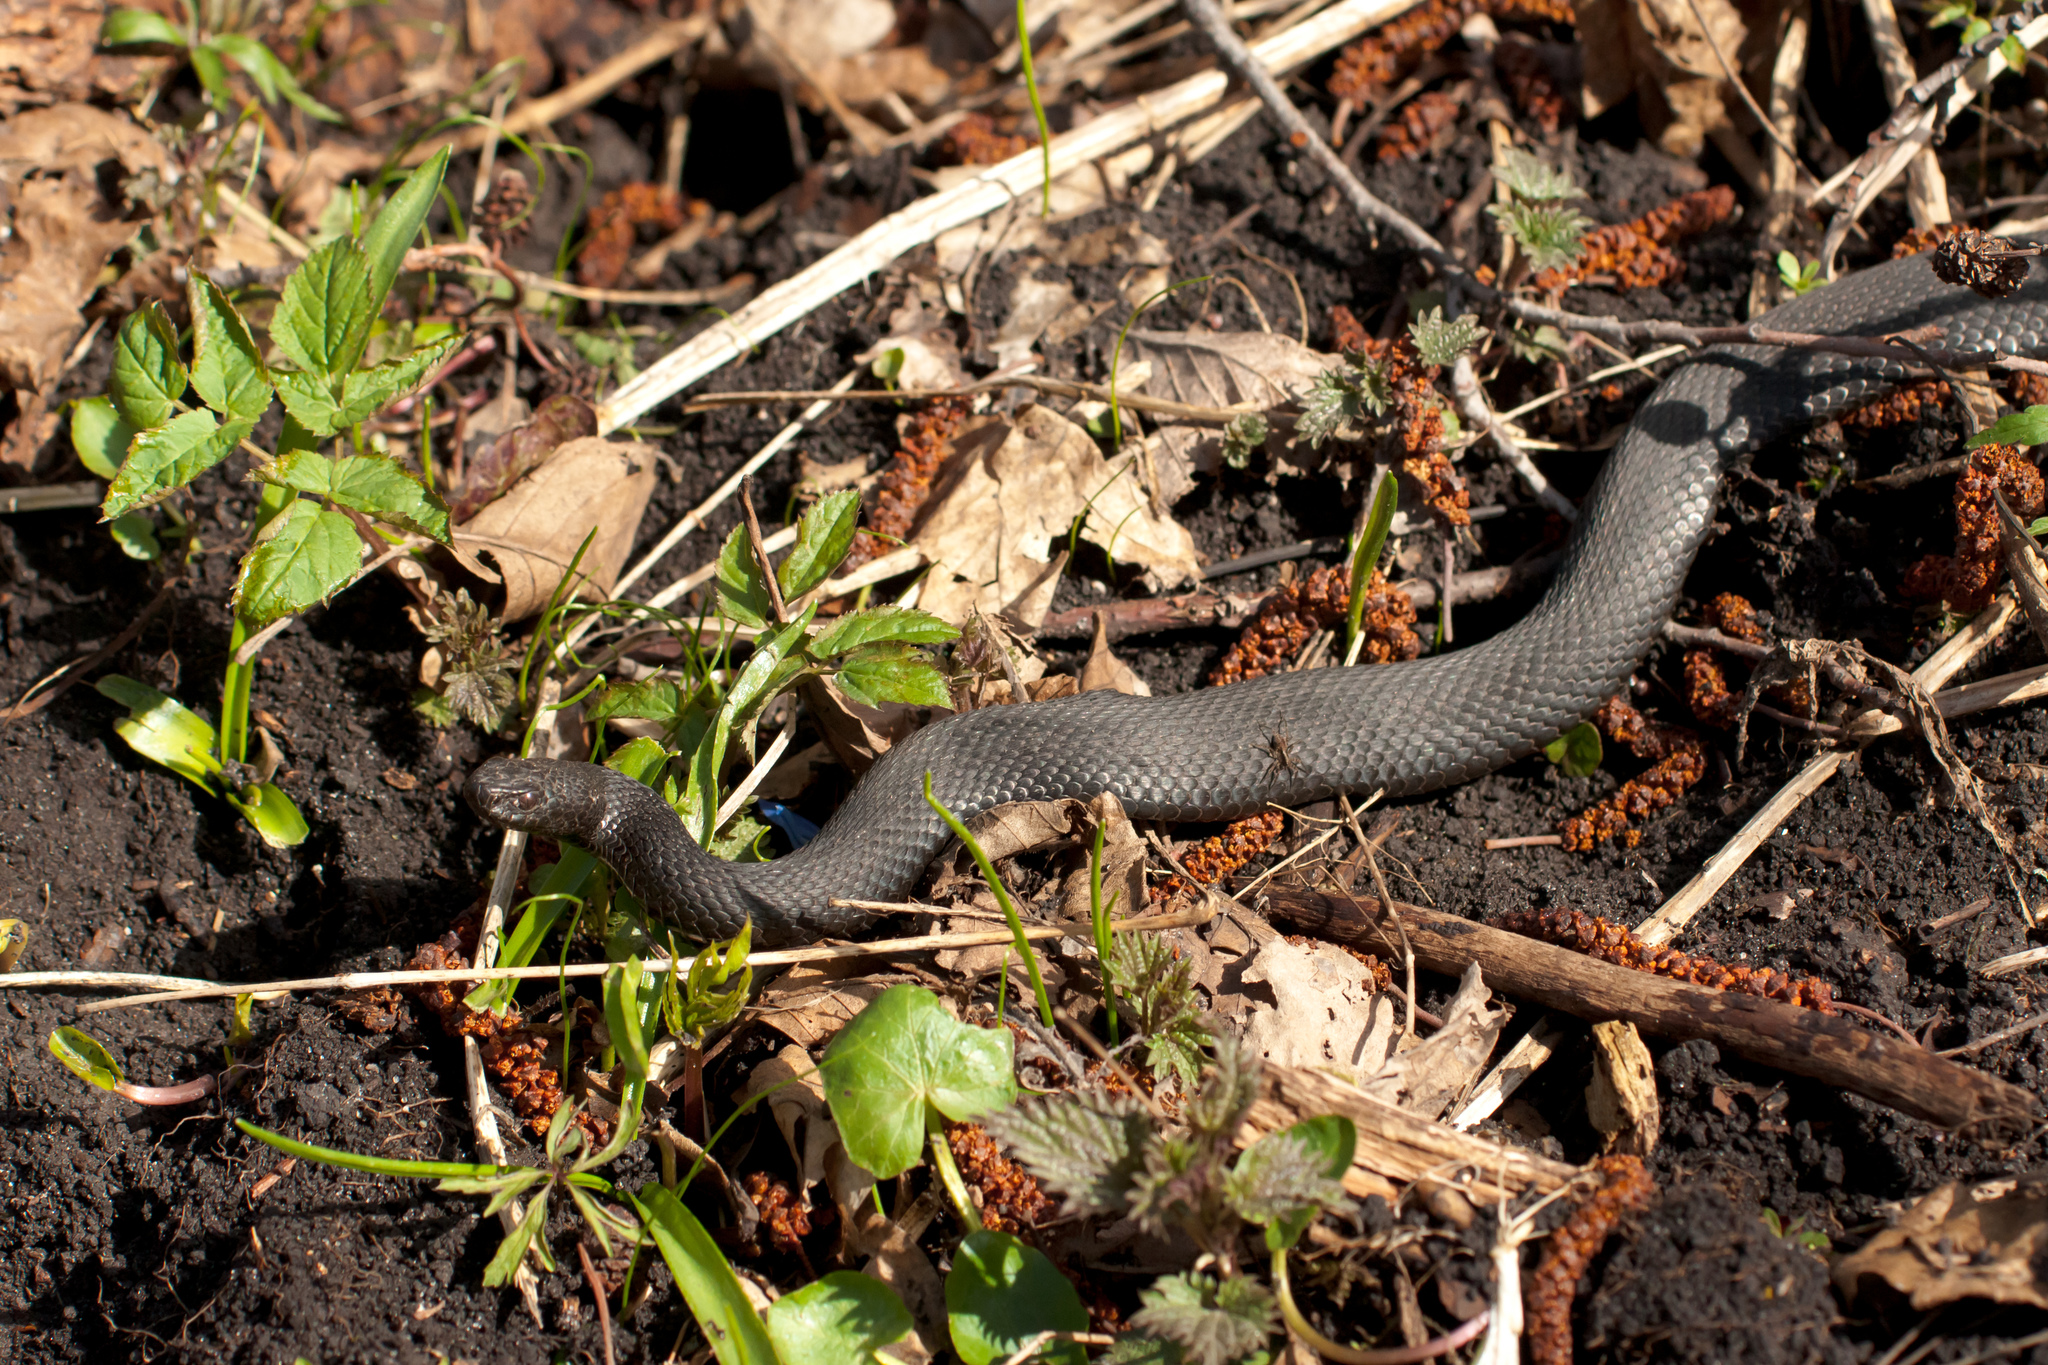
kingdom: Animalia
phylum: Chordata
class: Squamata
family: Viperidae
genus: Vipera
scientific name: Vipera nikolskii
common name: Adder
